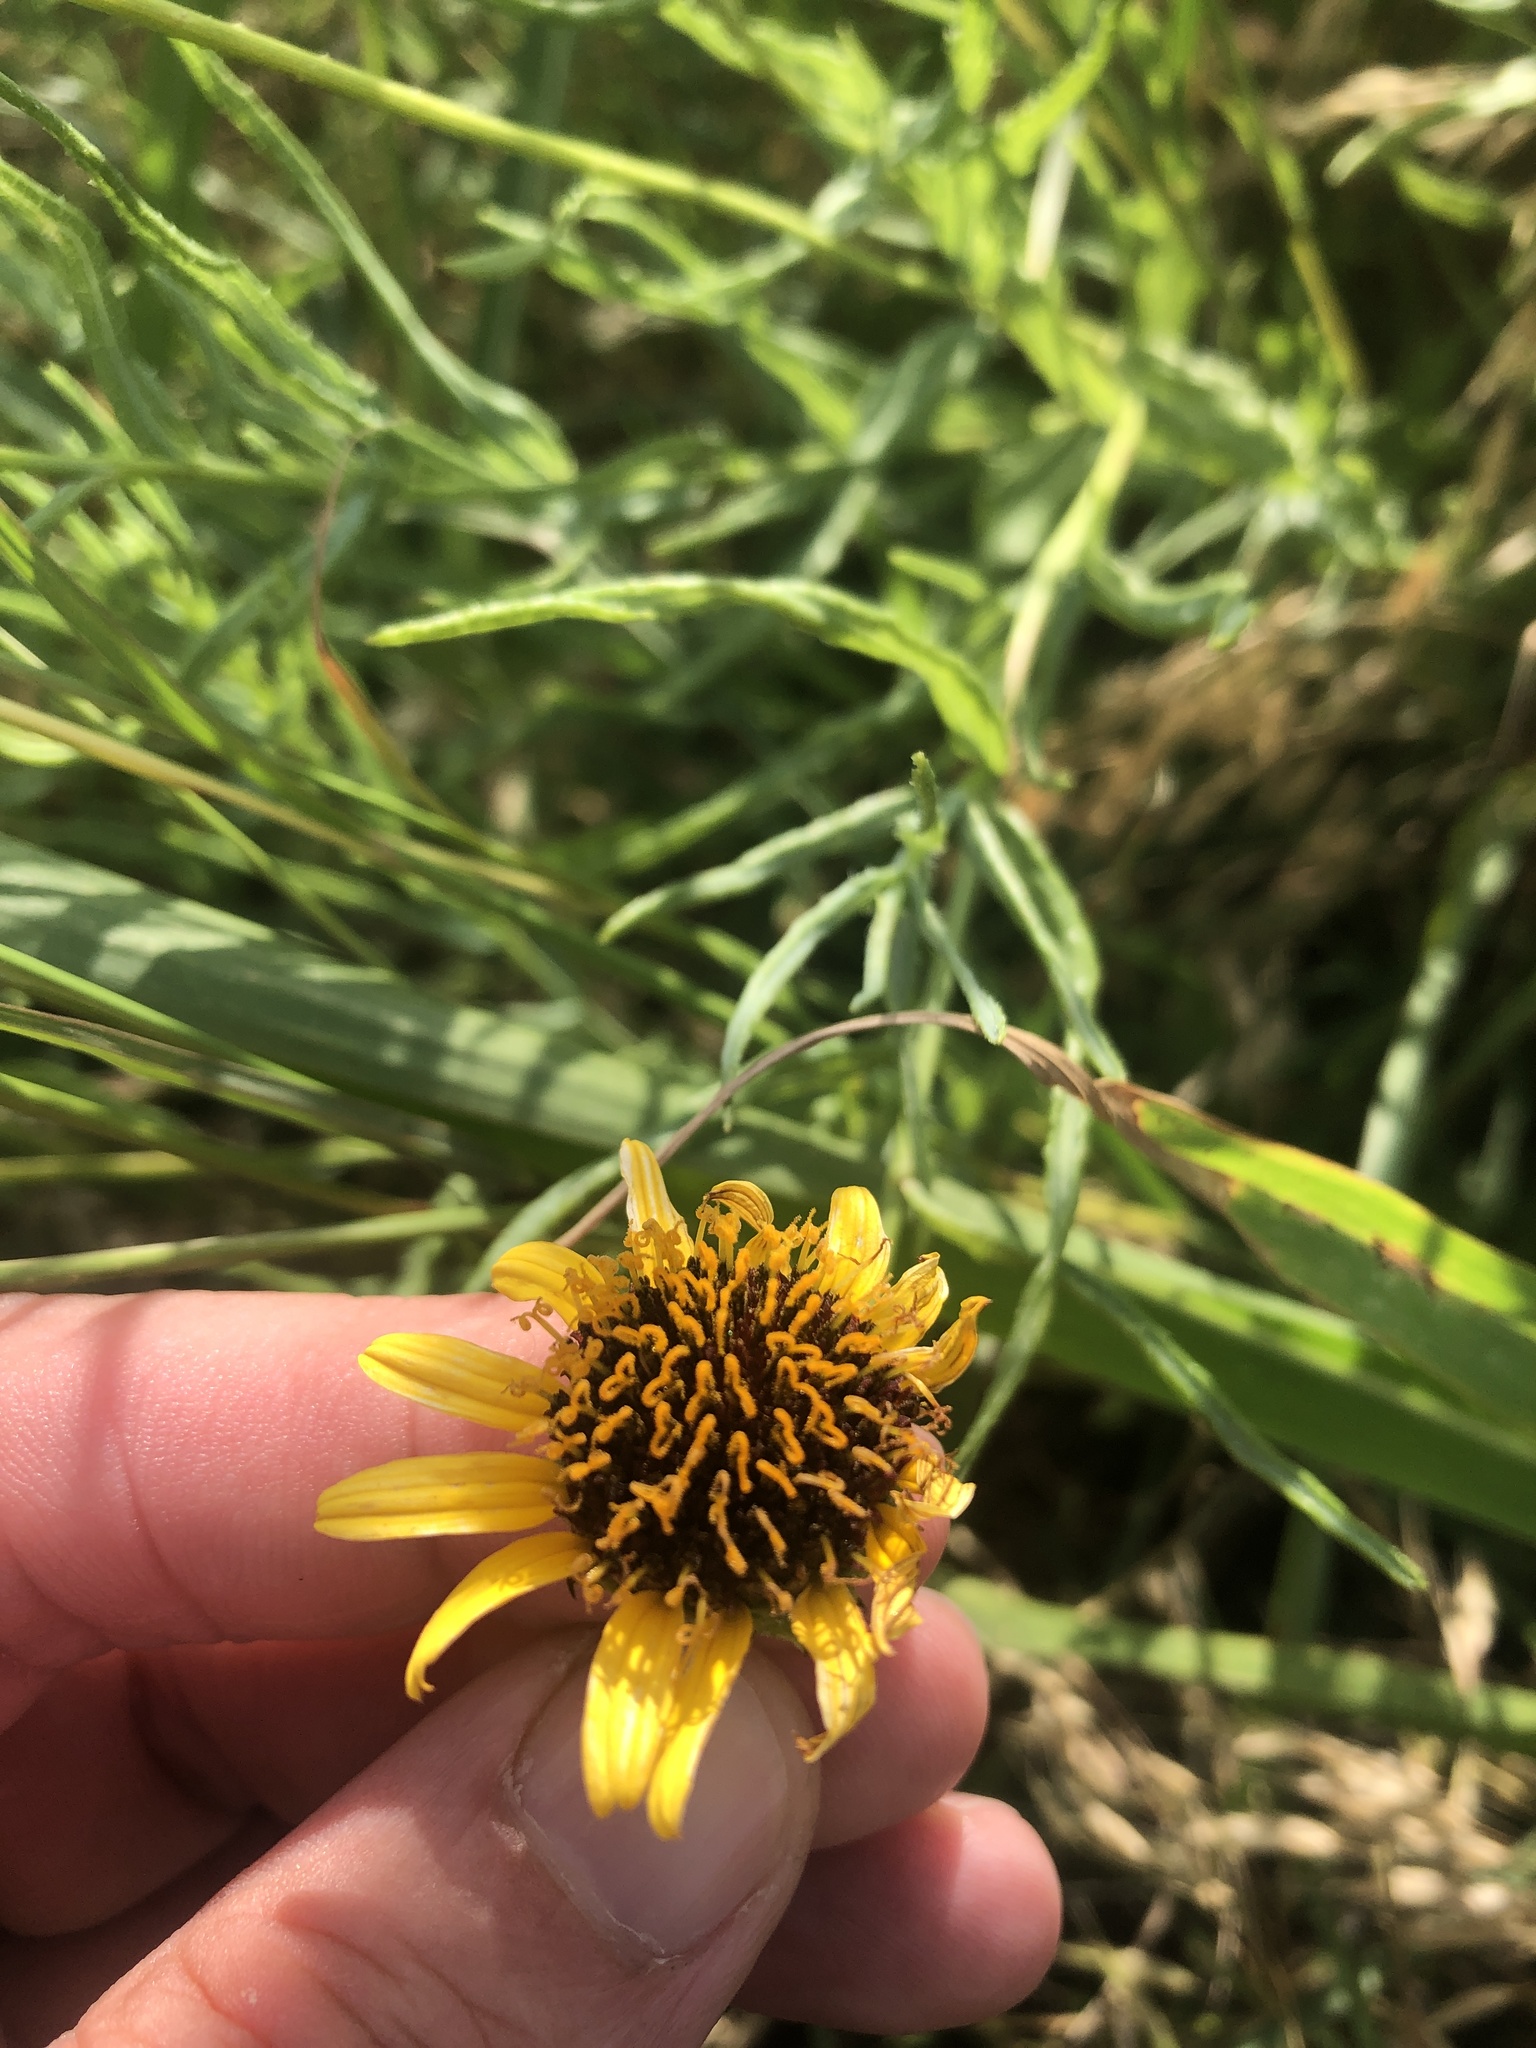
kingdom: Plantae
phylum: Tracheophyta
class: Magnoliopsida
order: Asterales
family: Asteraceae
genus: Helianthus
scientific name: Helianthus ciliaris
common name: Texas blueweed
